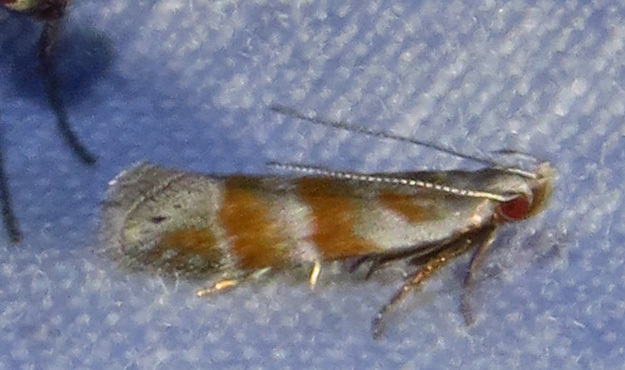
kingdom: Animalia
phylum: Arthropoda
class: Insecta
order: Lepidoptera
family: Gelechiidae
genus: Battaristis
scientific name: Battaristis vittella
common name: Orange stripe-backed moth
